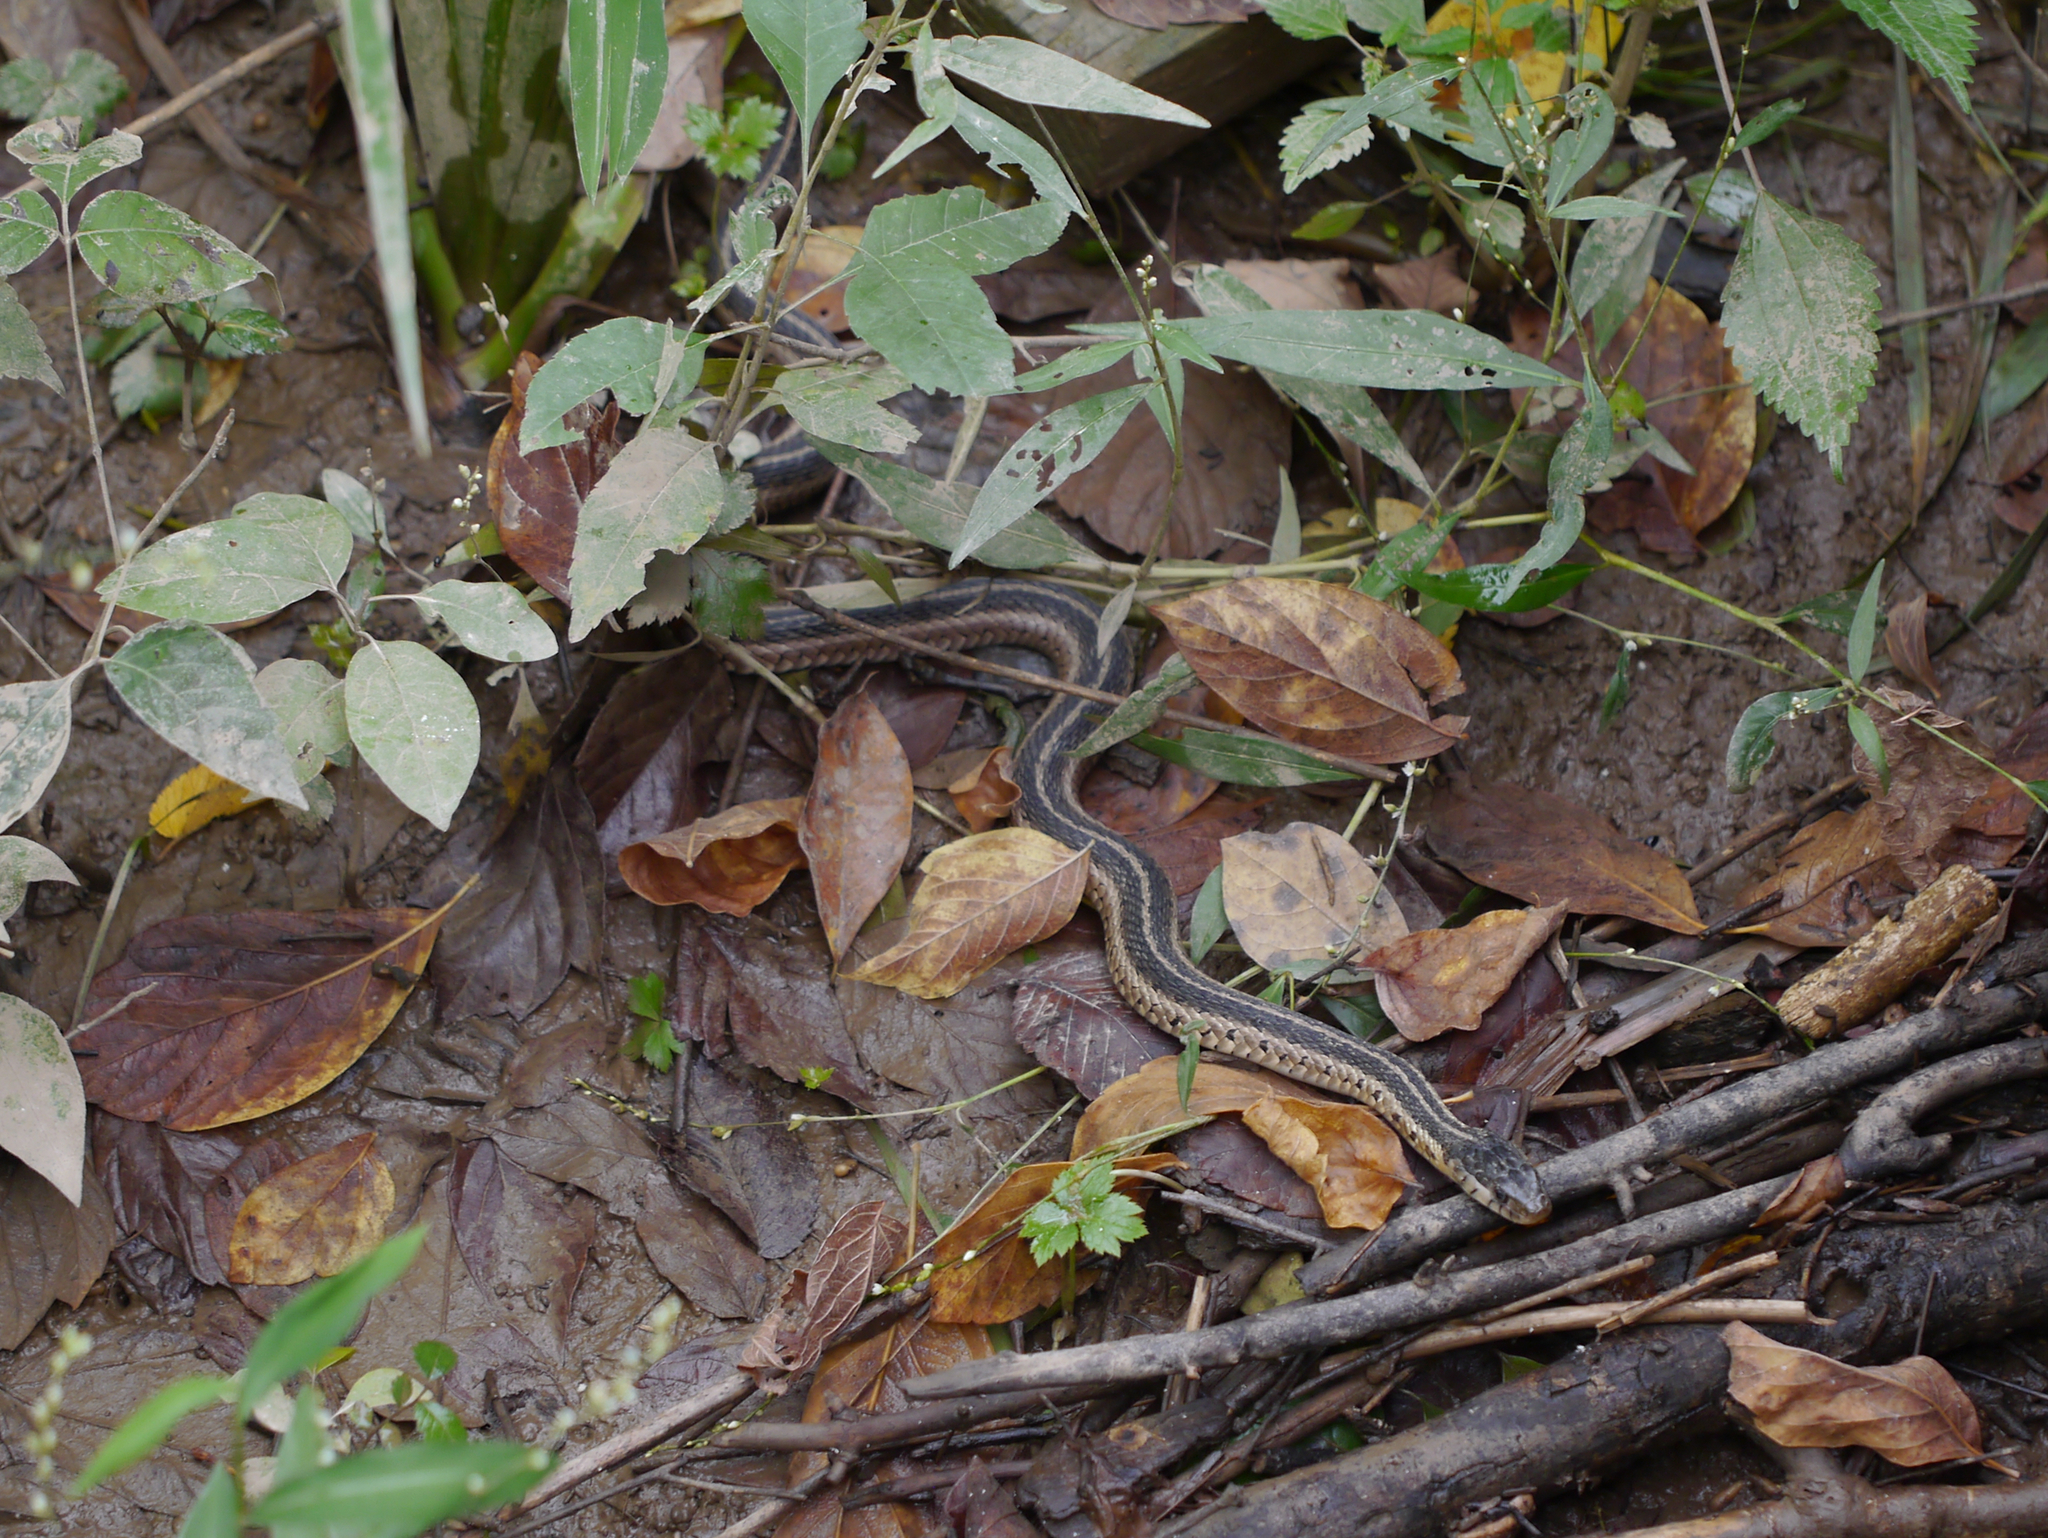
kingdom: Animalia
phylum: Chordata
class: Squamata
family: Colubridae
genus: Thamnophis
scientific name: Thamnophis sirtalis
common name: Common garter snake
